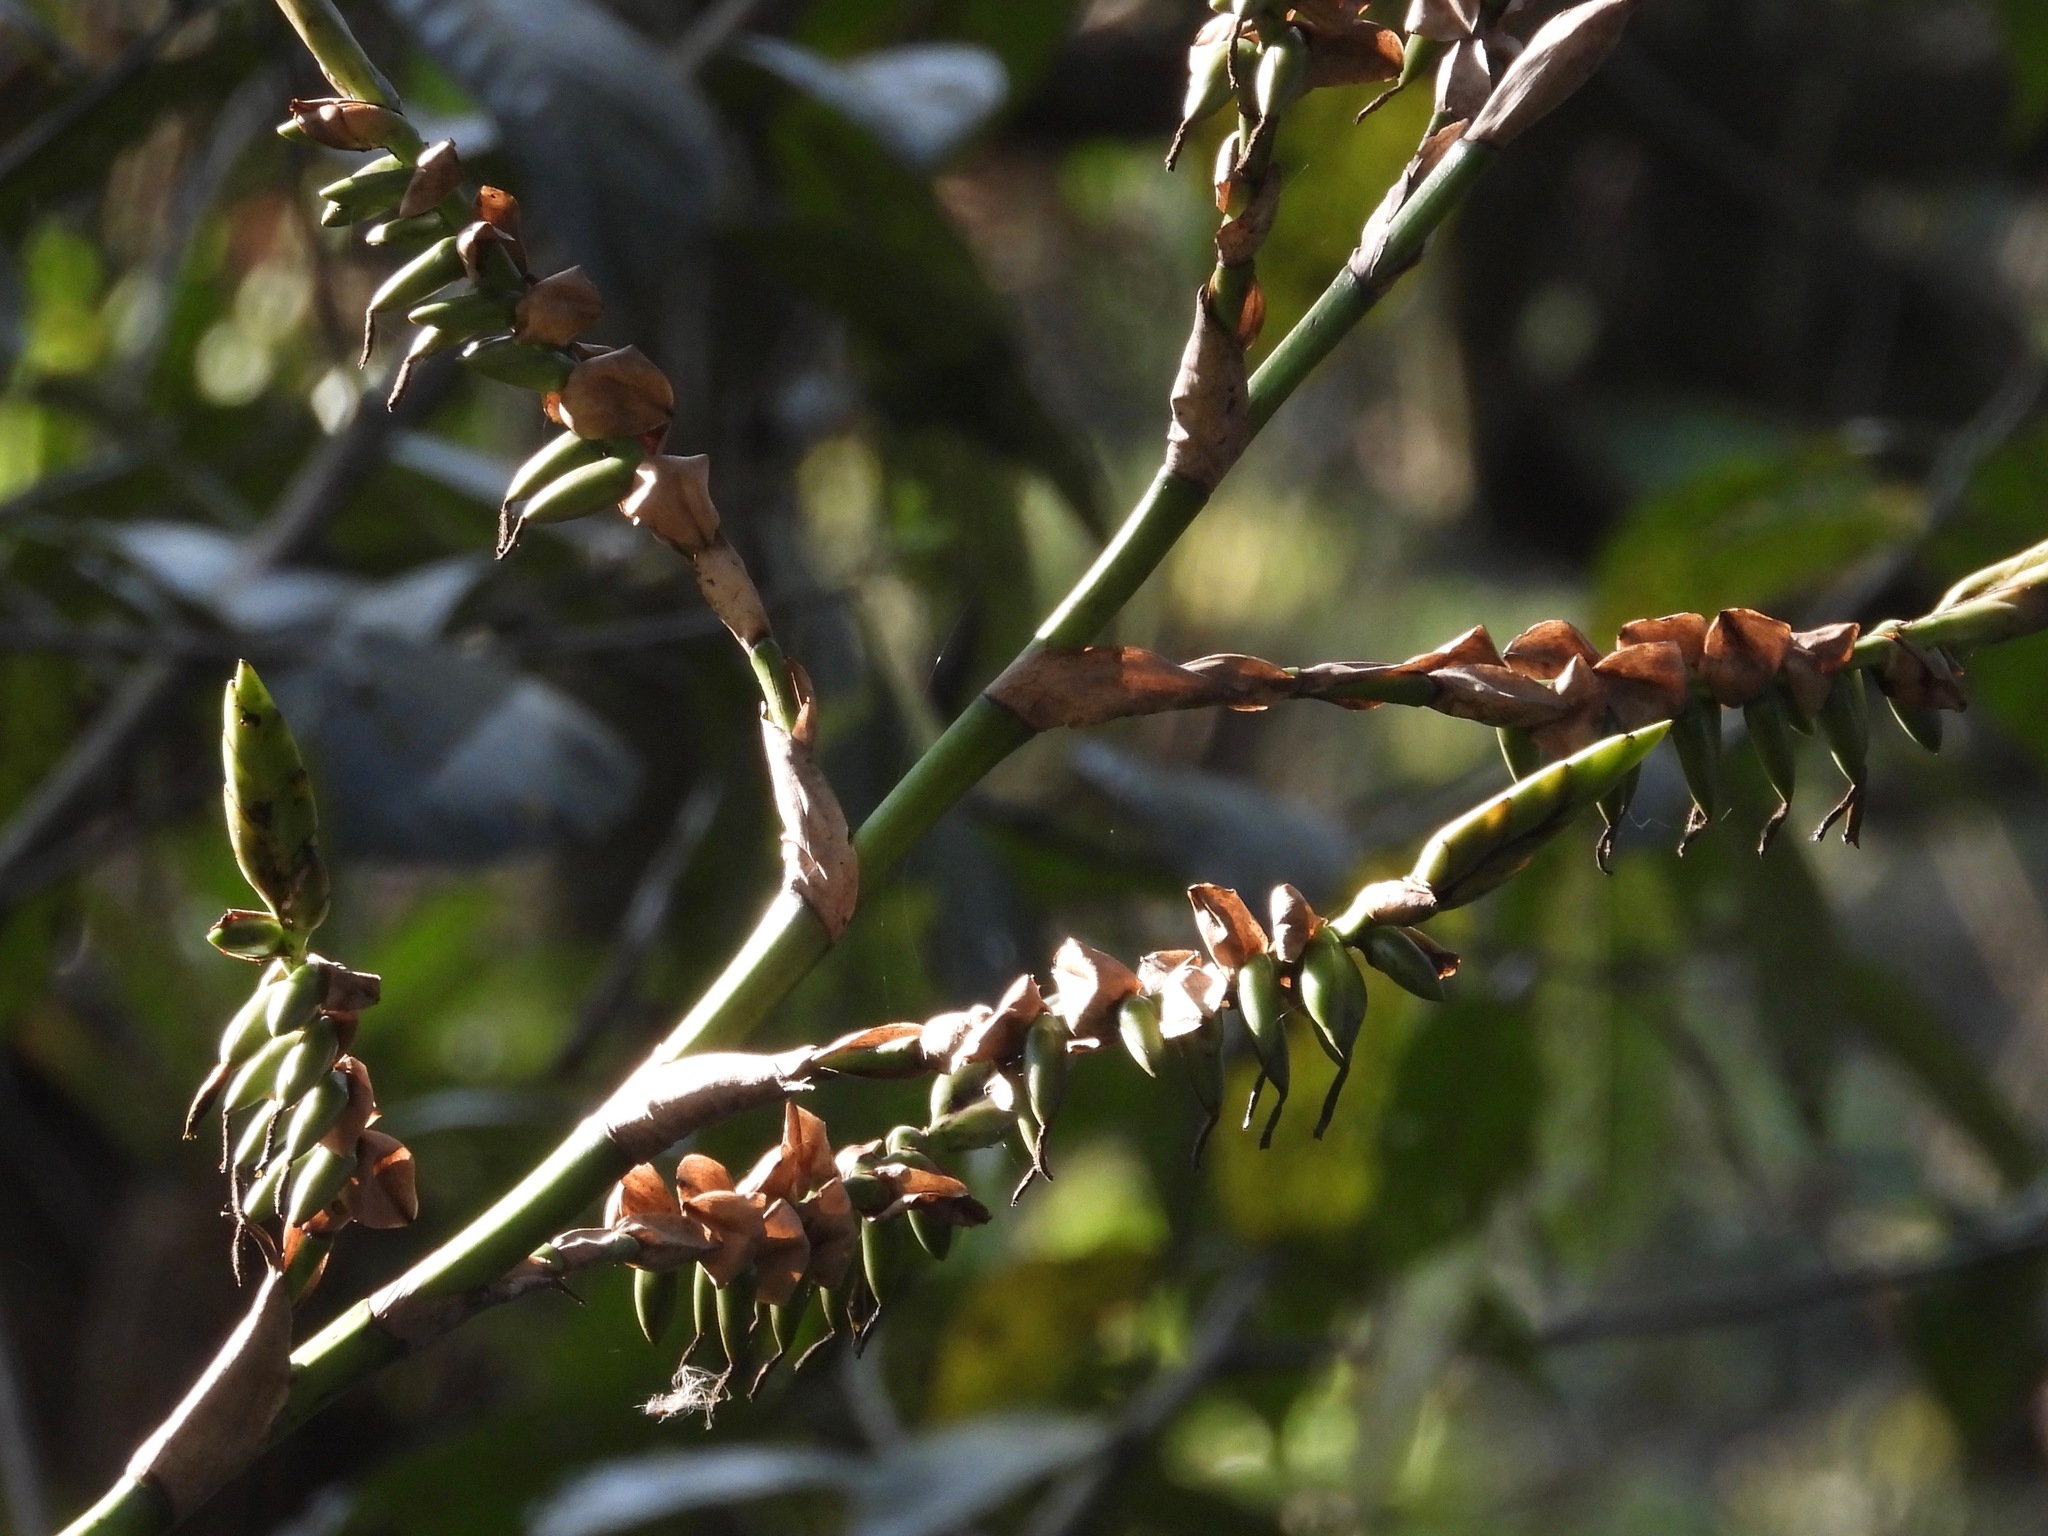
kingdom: Plantae
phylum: Tracheophyta
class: Liliopsida
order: Poales
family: Bromeliaceae
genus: Werauhia
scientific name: Werauhia werckleana
